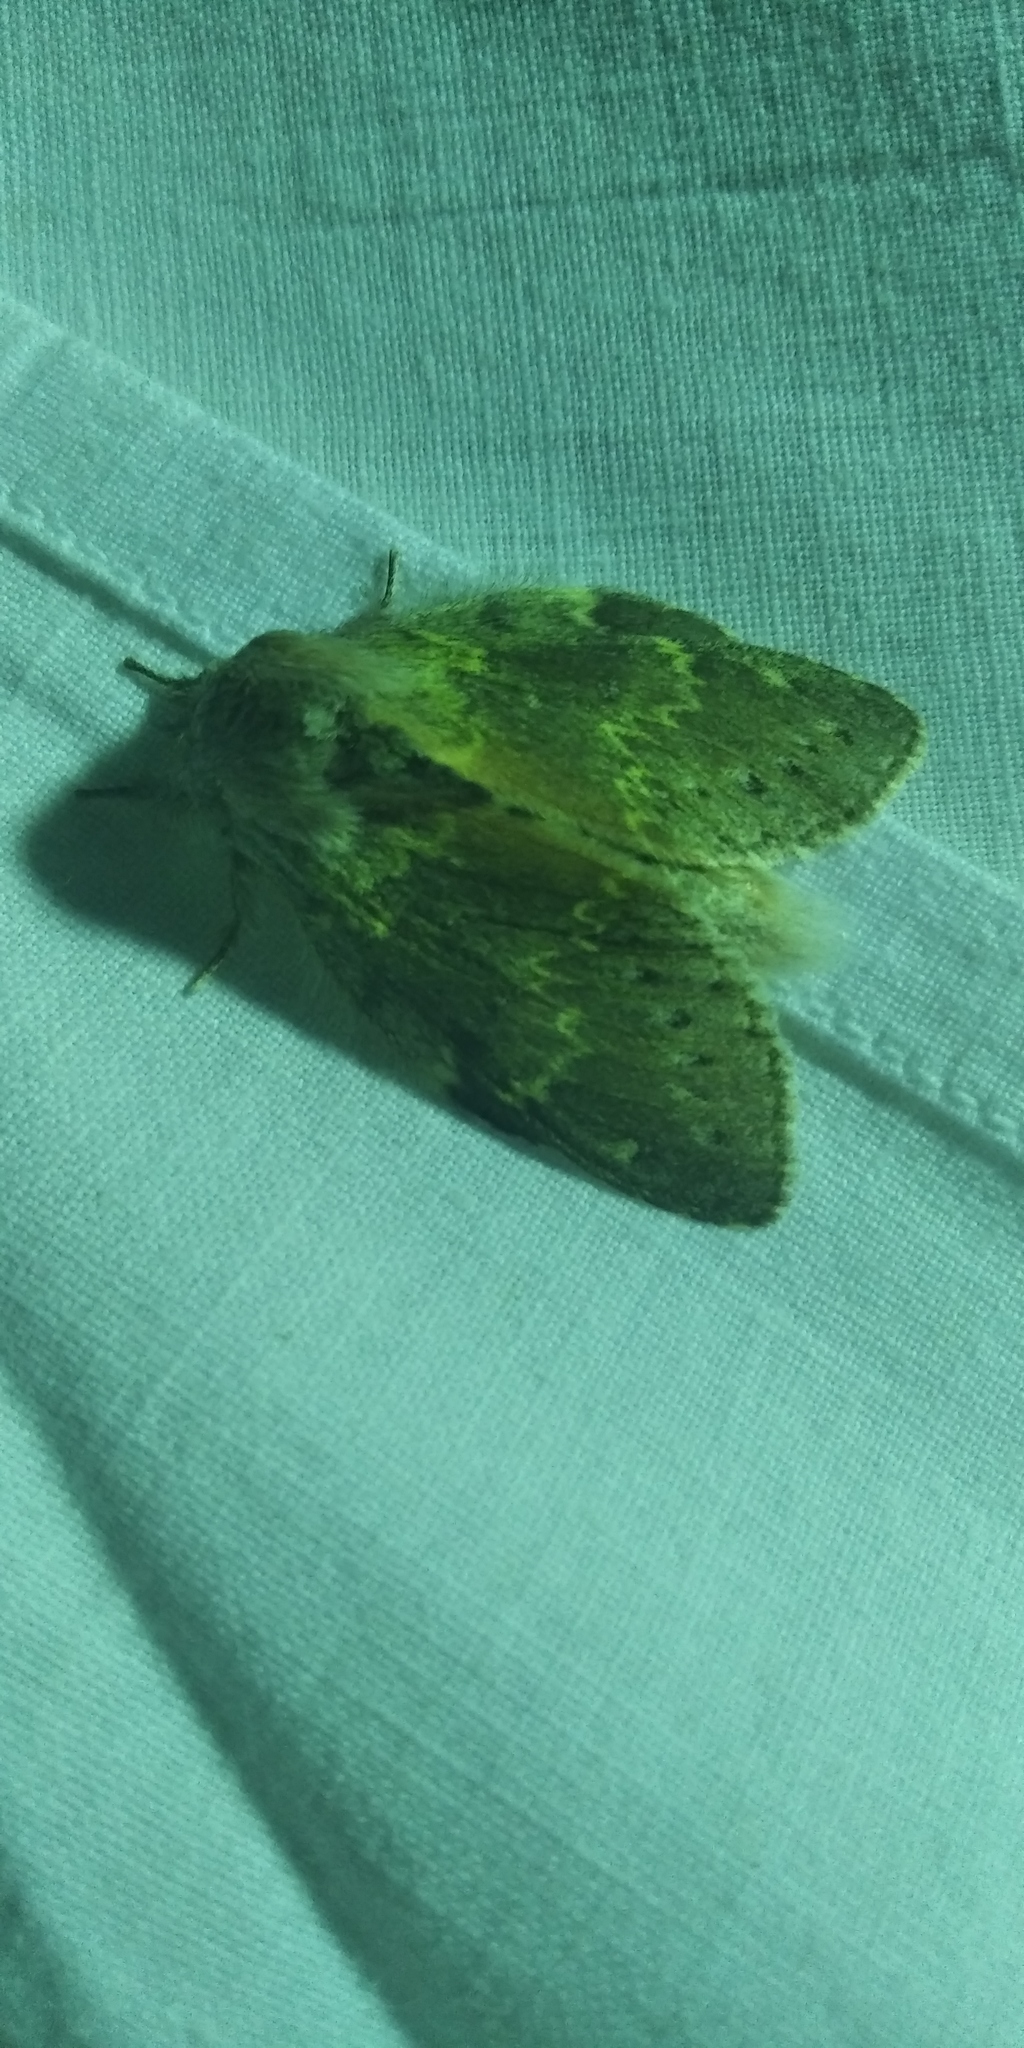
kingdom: Animalia
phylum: Arthropoda
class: Insecta
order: Lepidoptera
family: Notodontidae
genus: Stauropus
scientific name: Stauropus fagi
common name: Lobster moth
